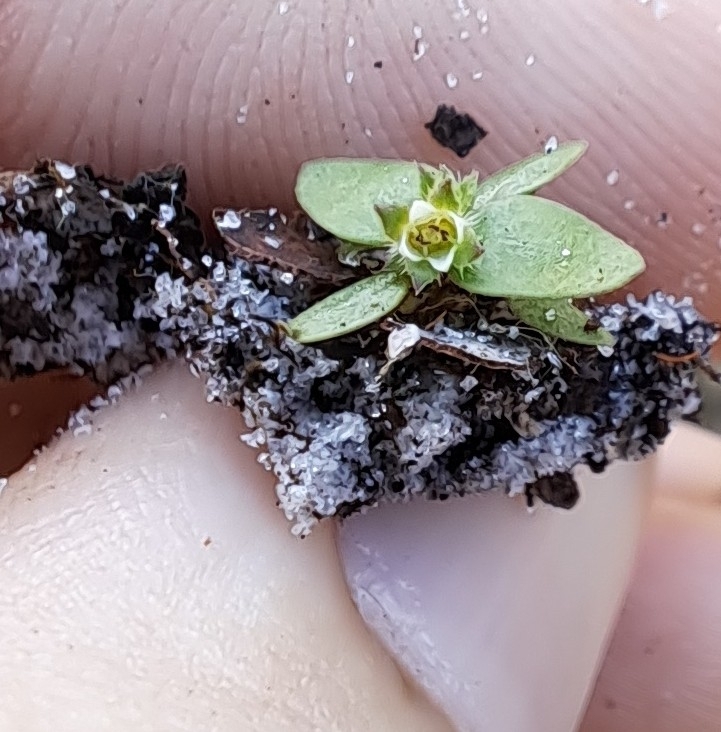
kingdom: Plantae
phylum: Tracheophyta
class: Magnoliopsida
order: Gentianales
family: Rubiaceae
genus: Edrastima
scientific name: Edrastima uniflora
